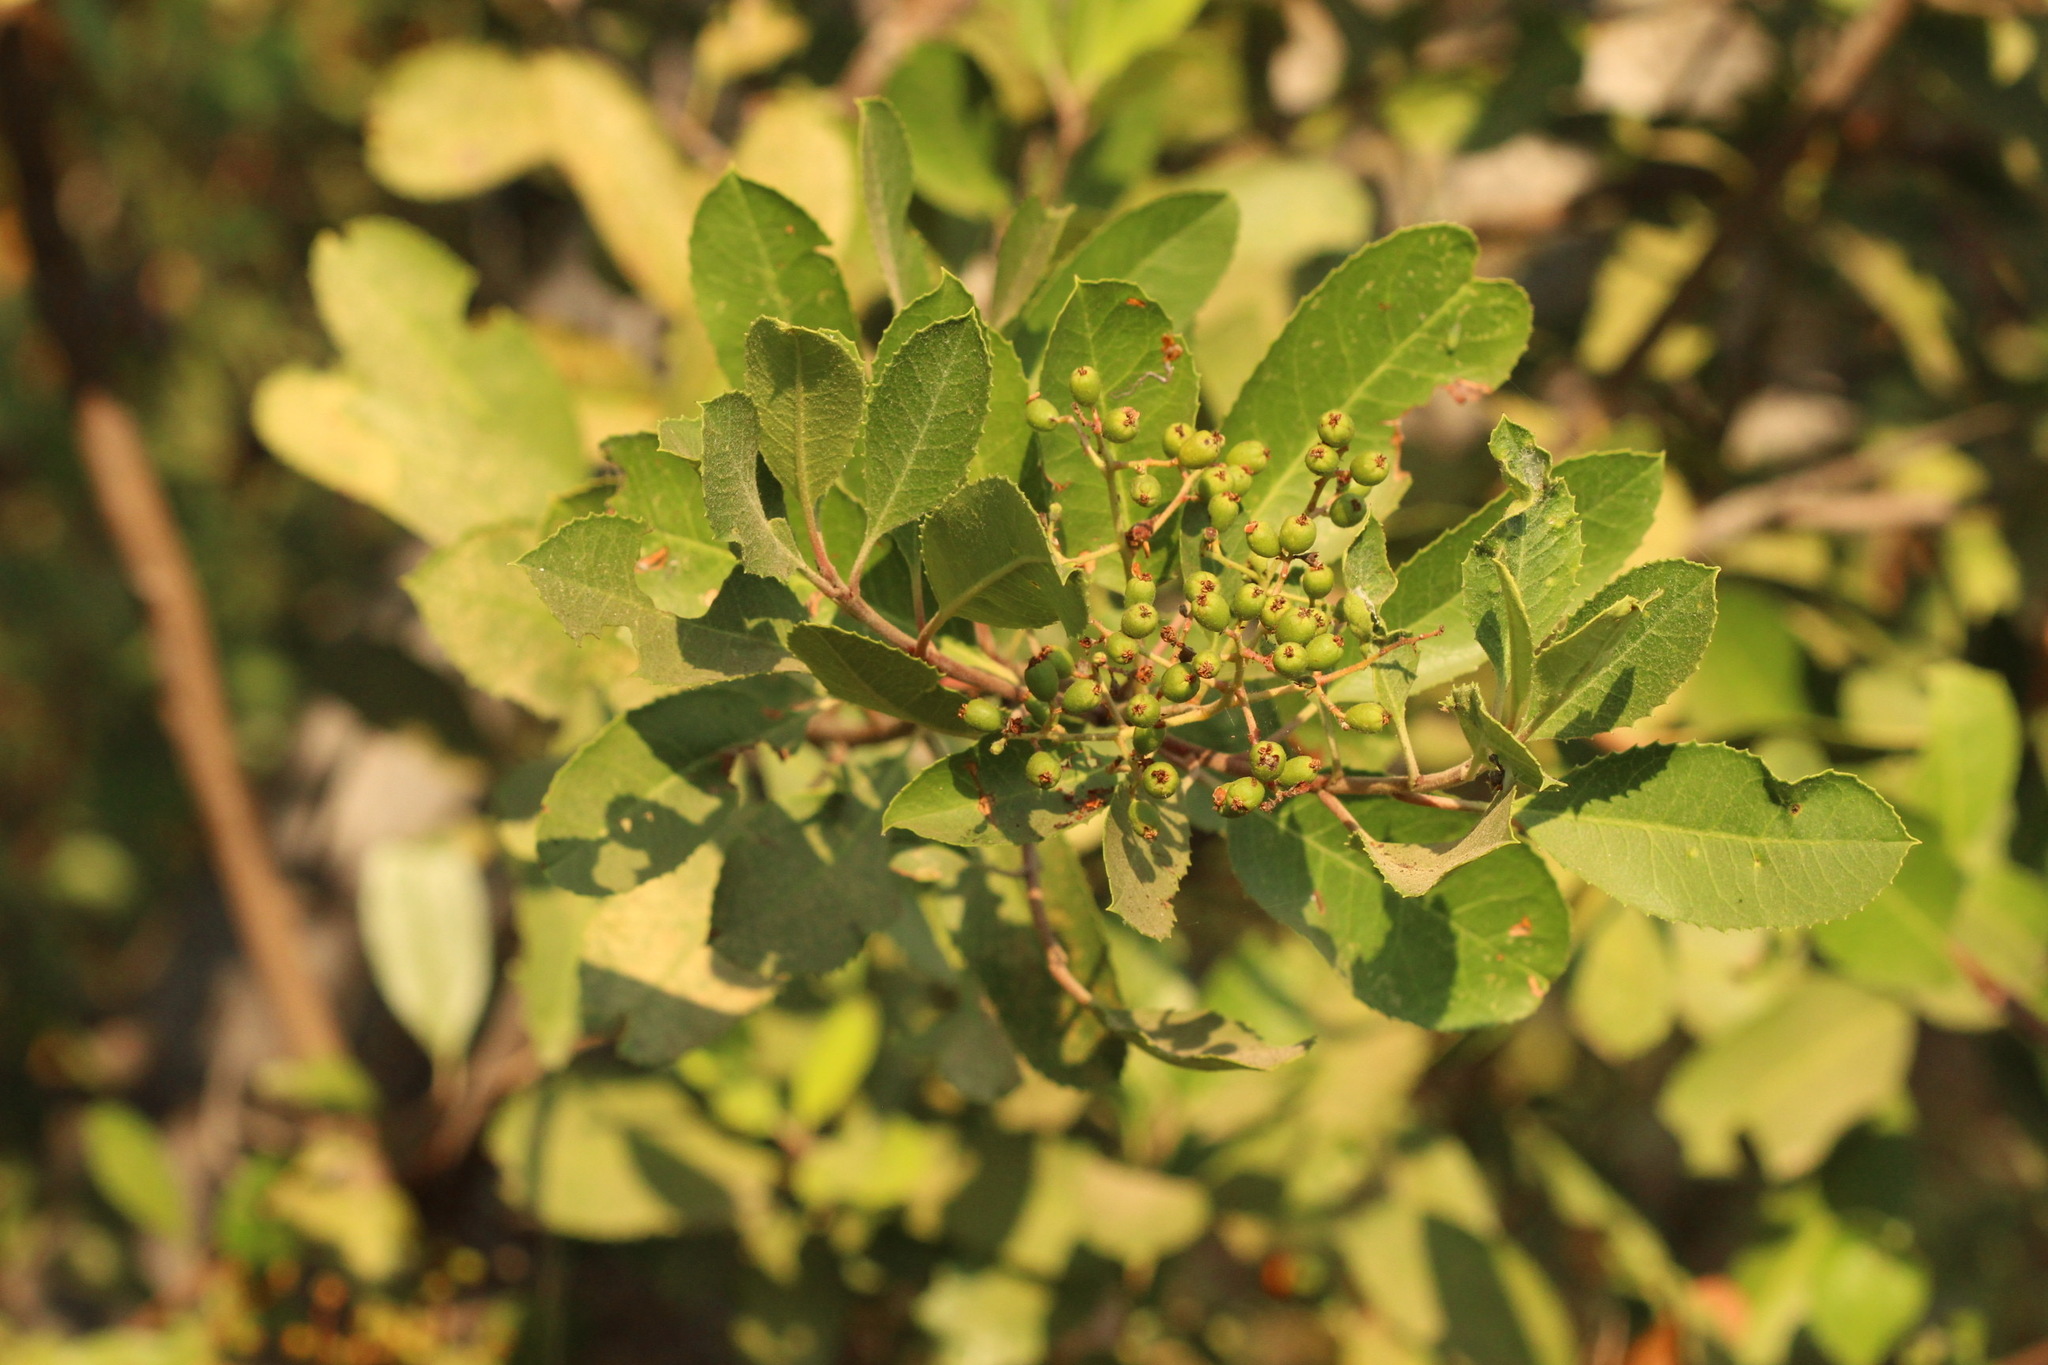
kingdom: Plantae
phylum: Tracheophyta
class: Magnoliopsida
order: Rosales
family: Rosaceae
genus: Heteromeles
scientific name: Heteromeles arbutifolia
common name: California-holly
